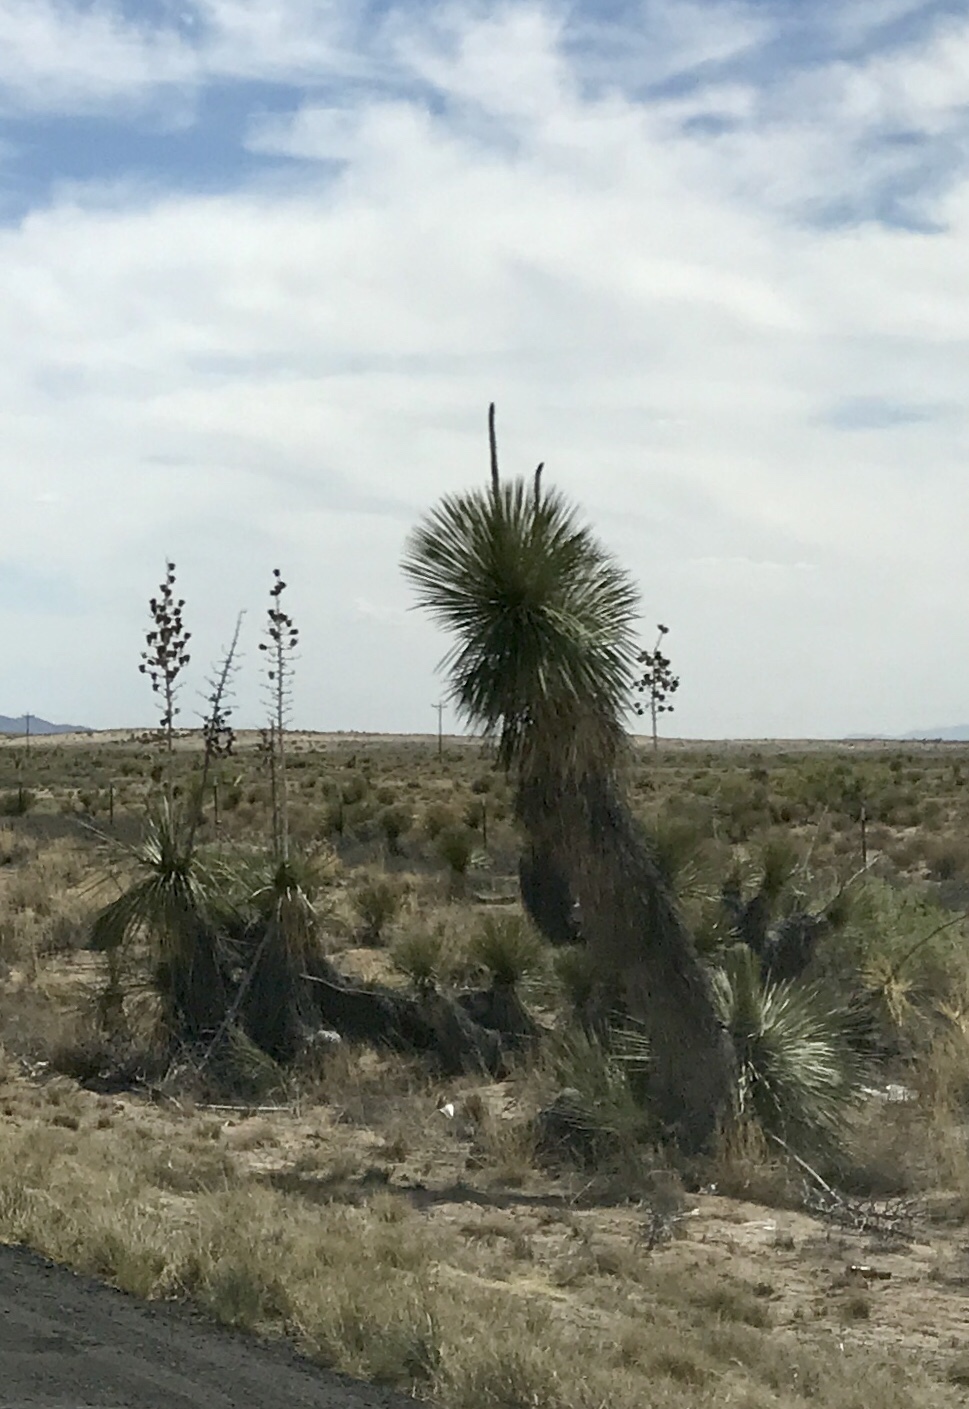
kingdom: Plantae
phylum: Tracheophyta
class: Liliopsida
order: Asparagales
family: Asparagaceae
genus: Yucca
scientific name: Yucca elata
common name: Palmella
